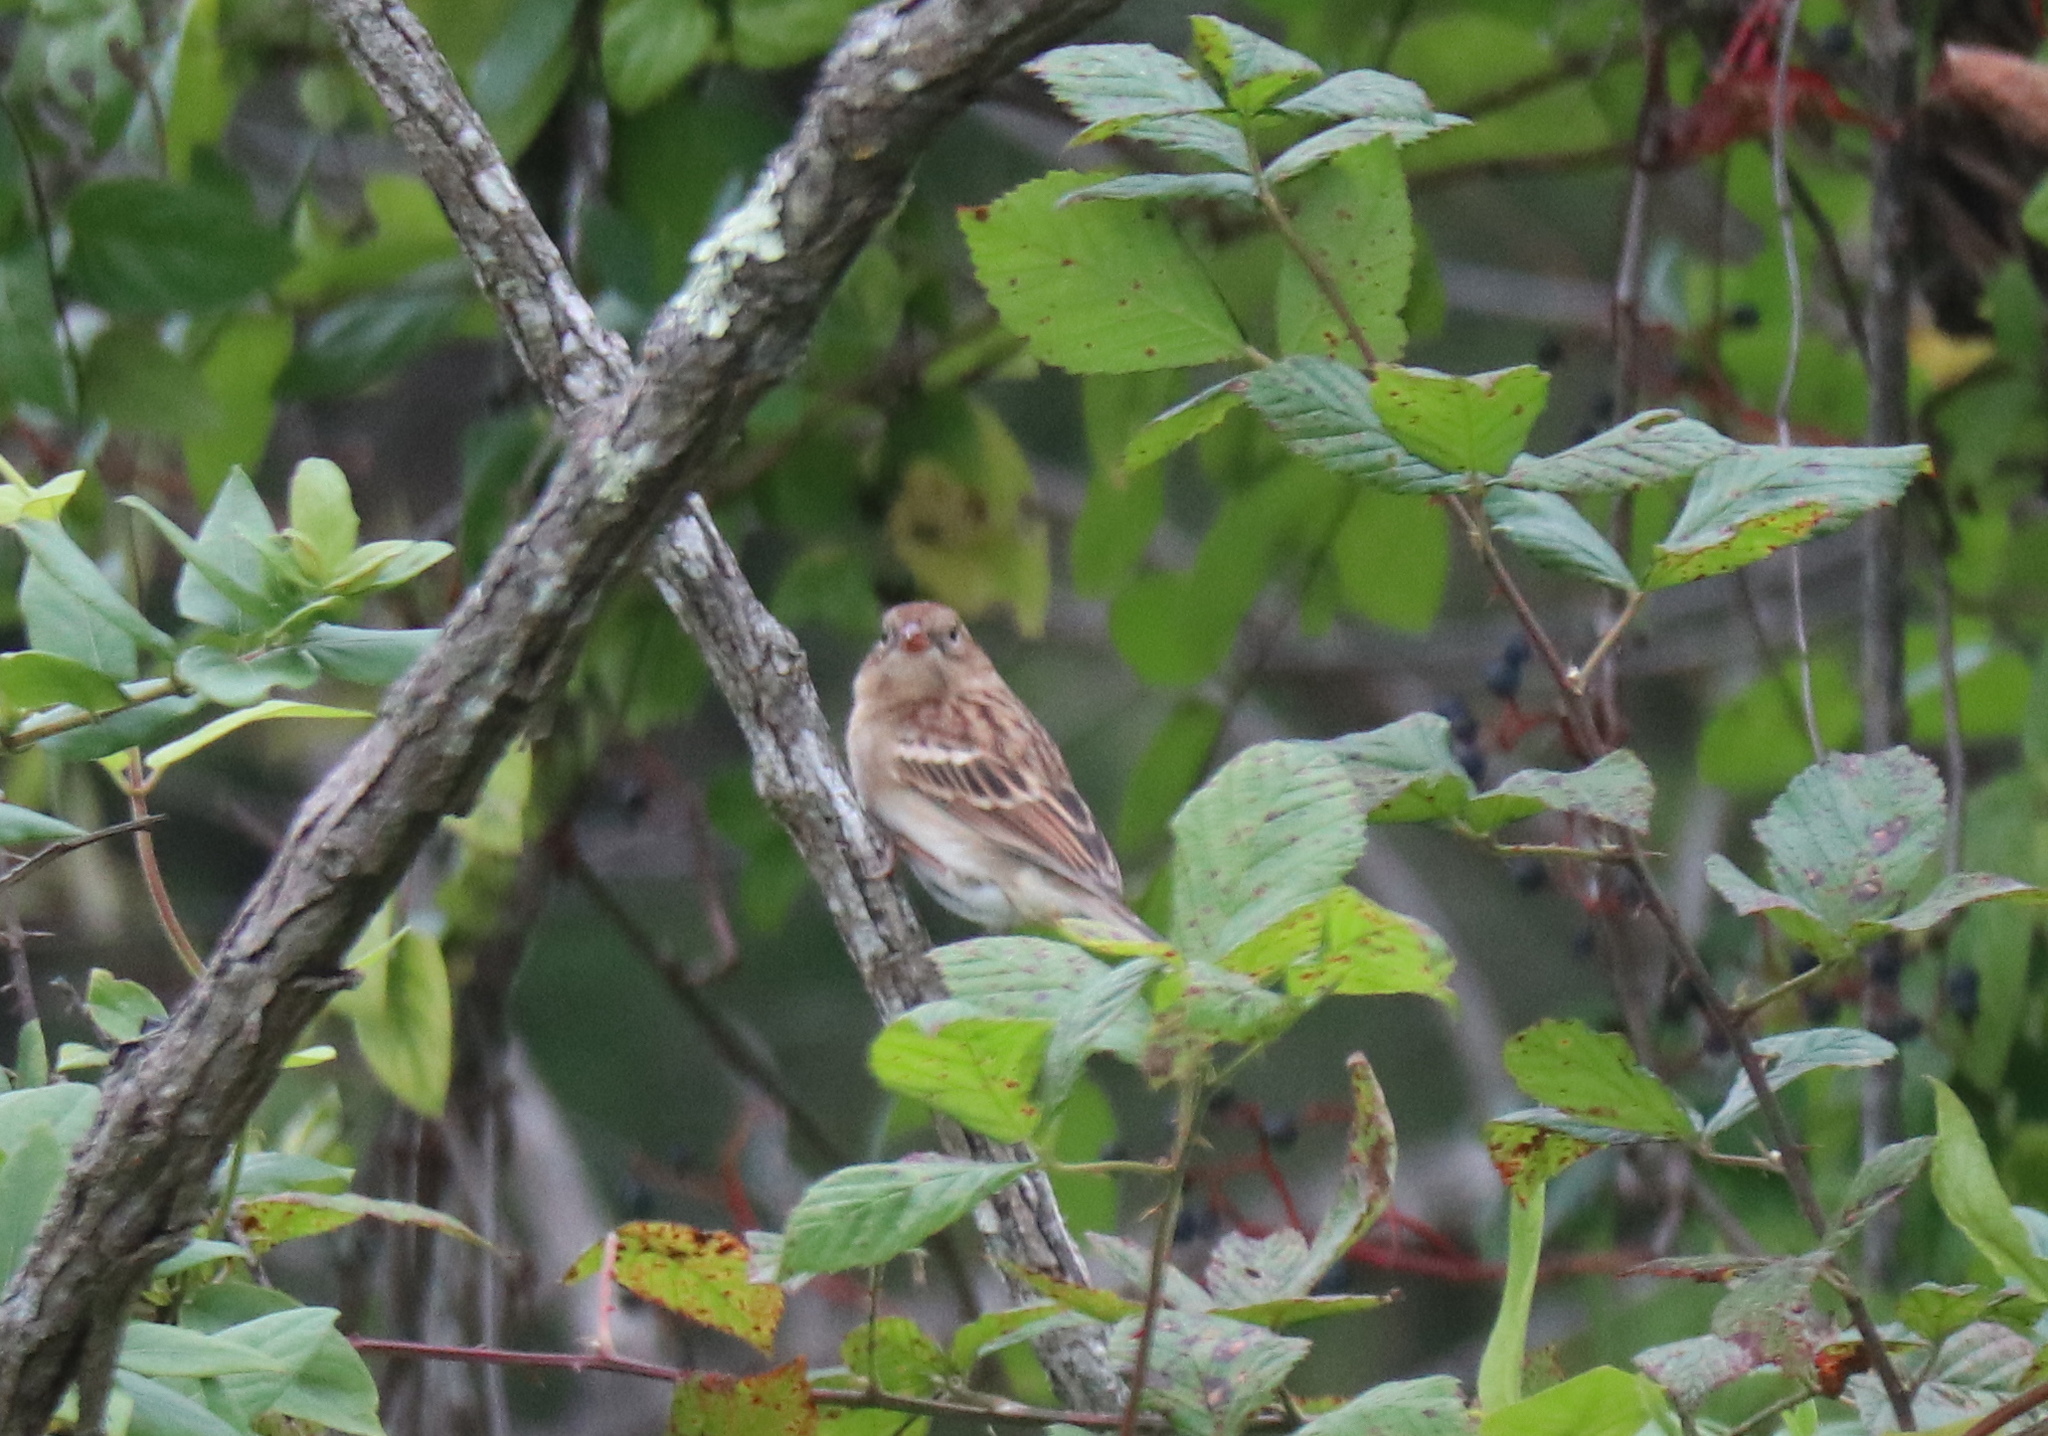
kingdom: Animalia
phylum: Chordata
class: Aves
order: Passeriformes
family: Passerellidae
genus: Spizella
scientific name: Spizella pusilla
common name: Field sparrow
